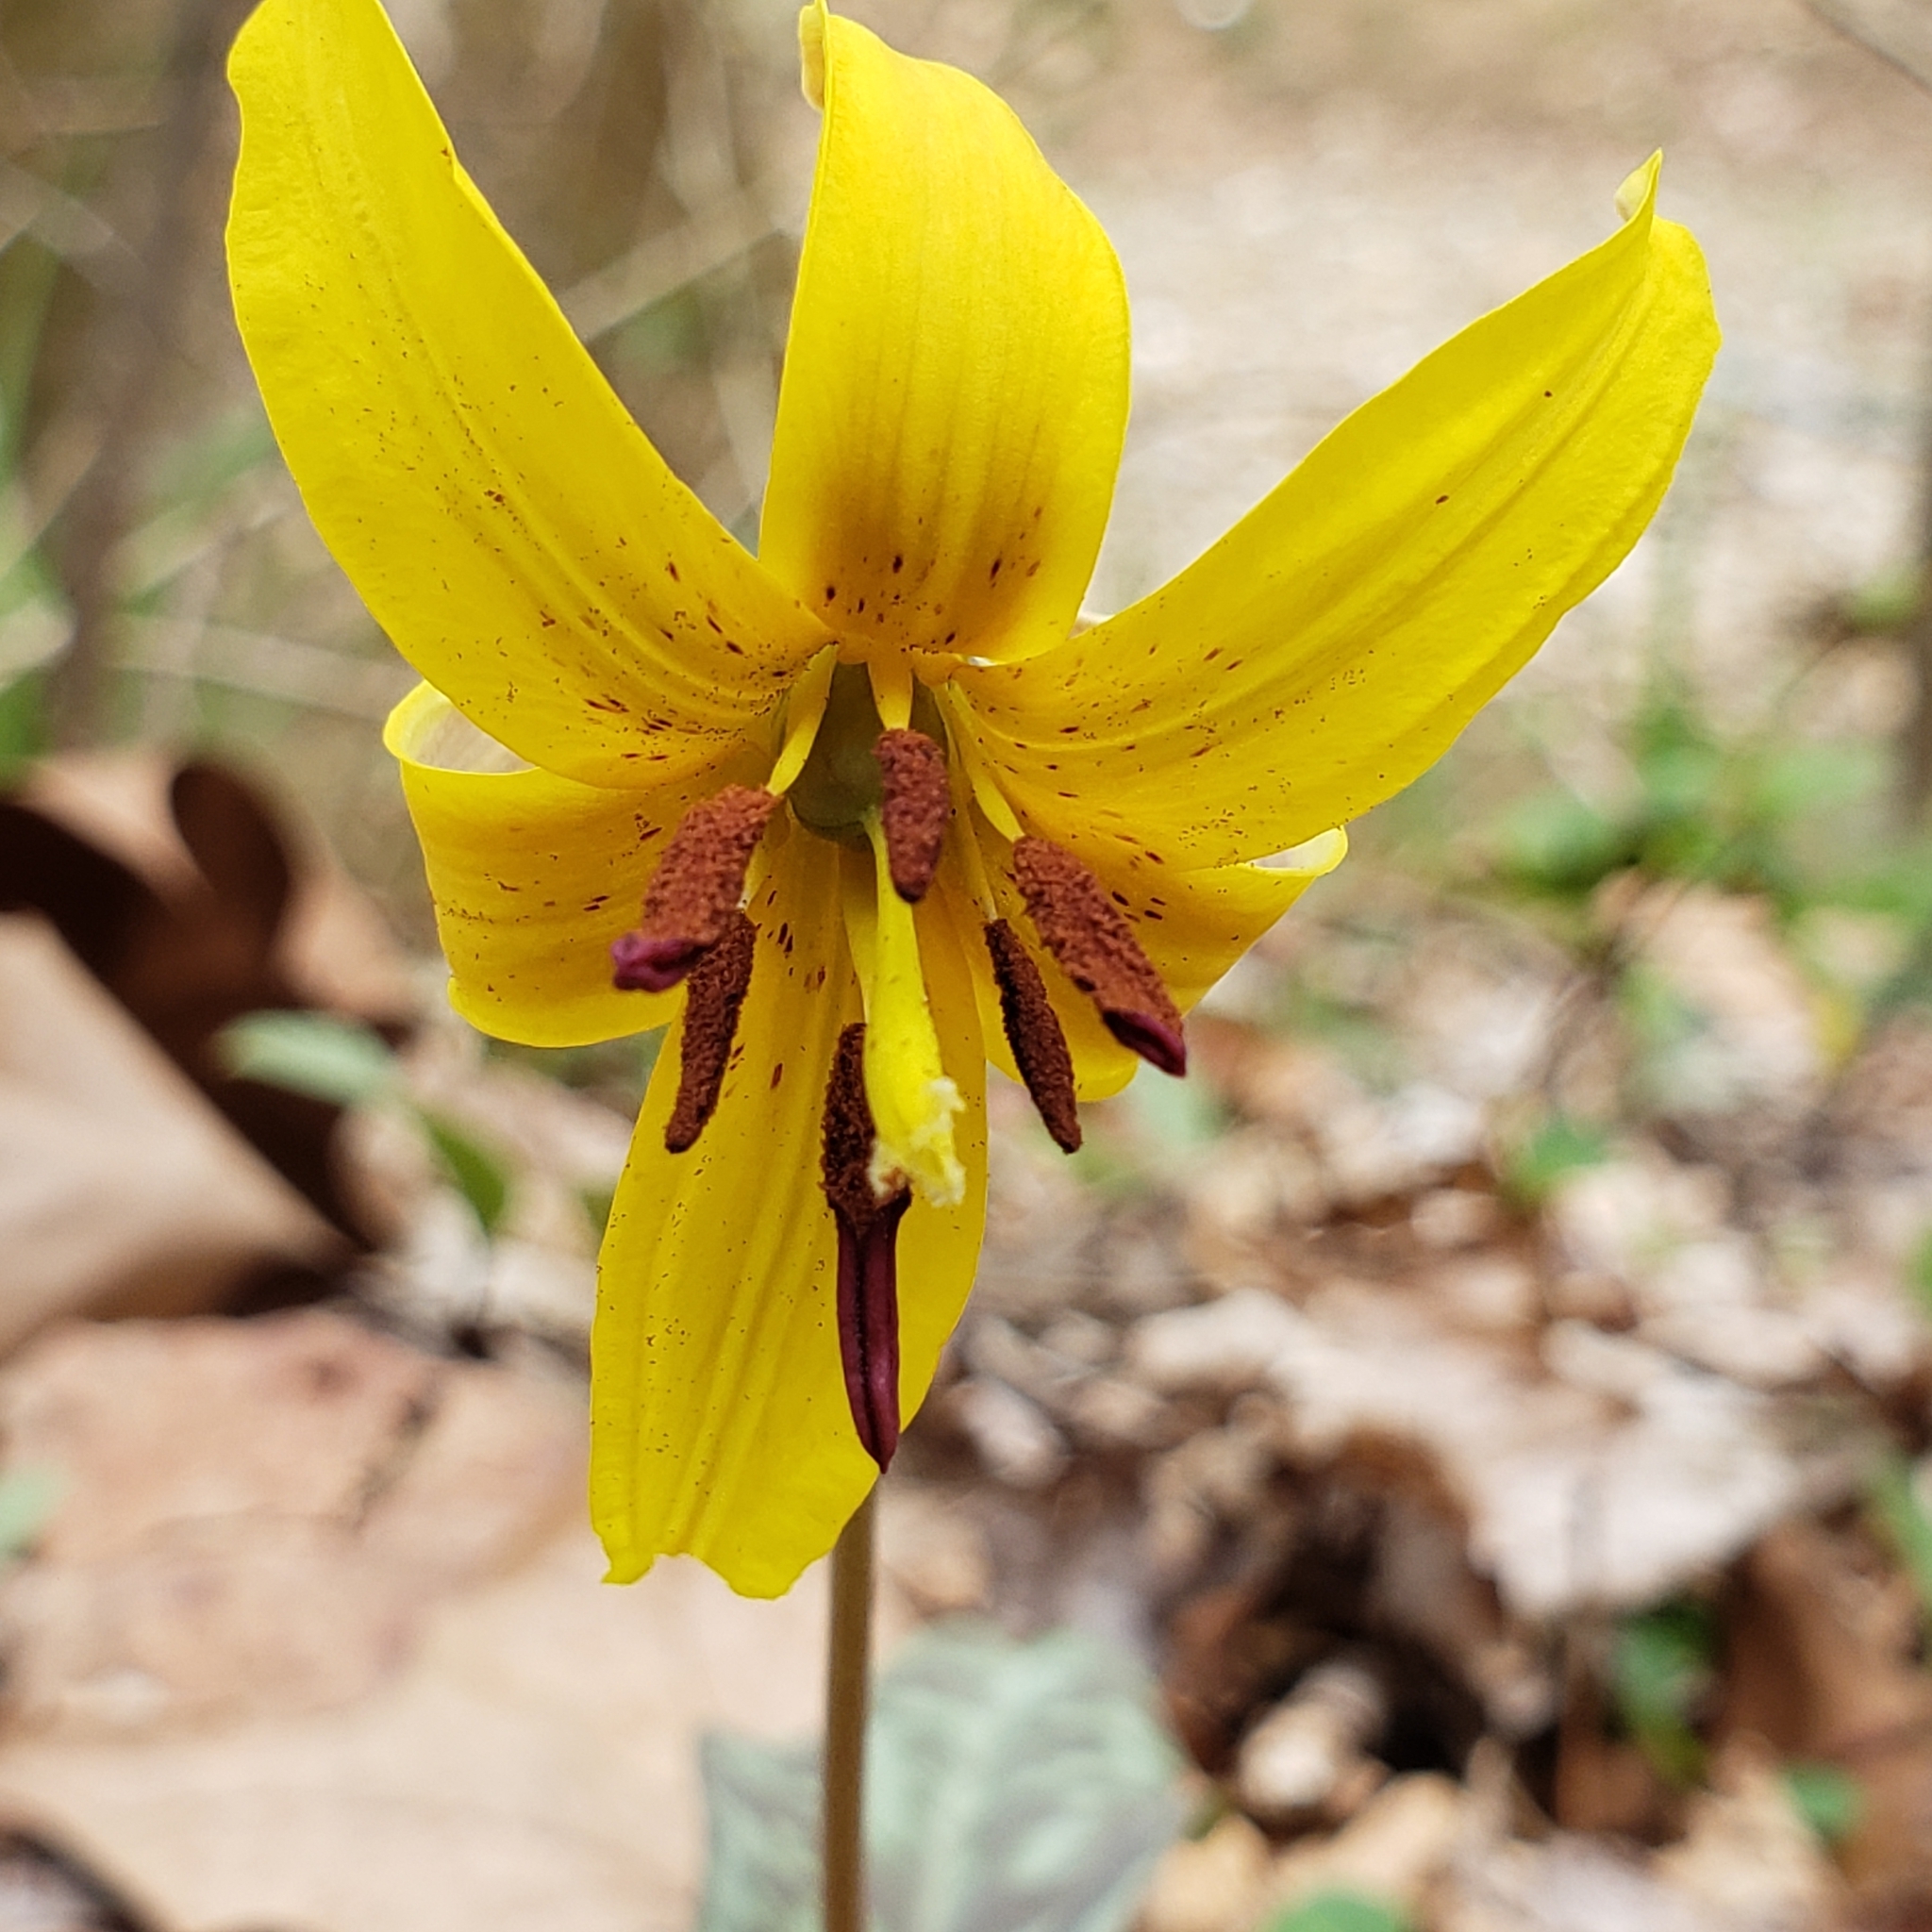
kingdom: Plantae
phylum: Tracheophyta
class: Liliopsida
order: Liliales
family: Liliaceae
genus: Erythronium
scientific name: Erythronium americanum
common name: Yellow adder's-tongue
